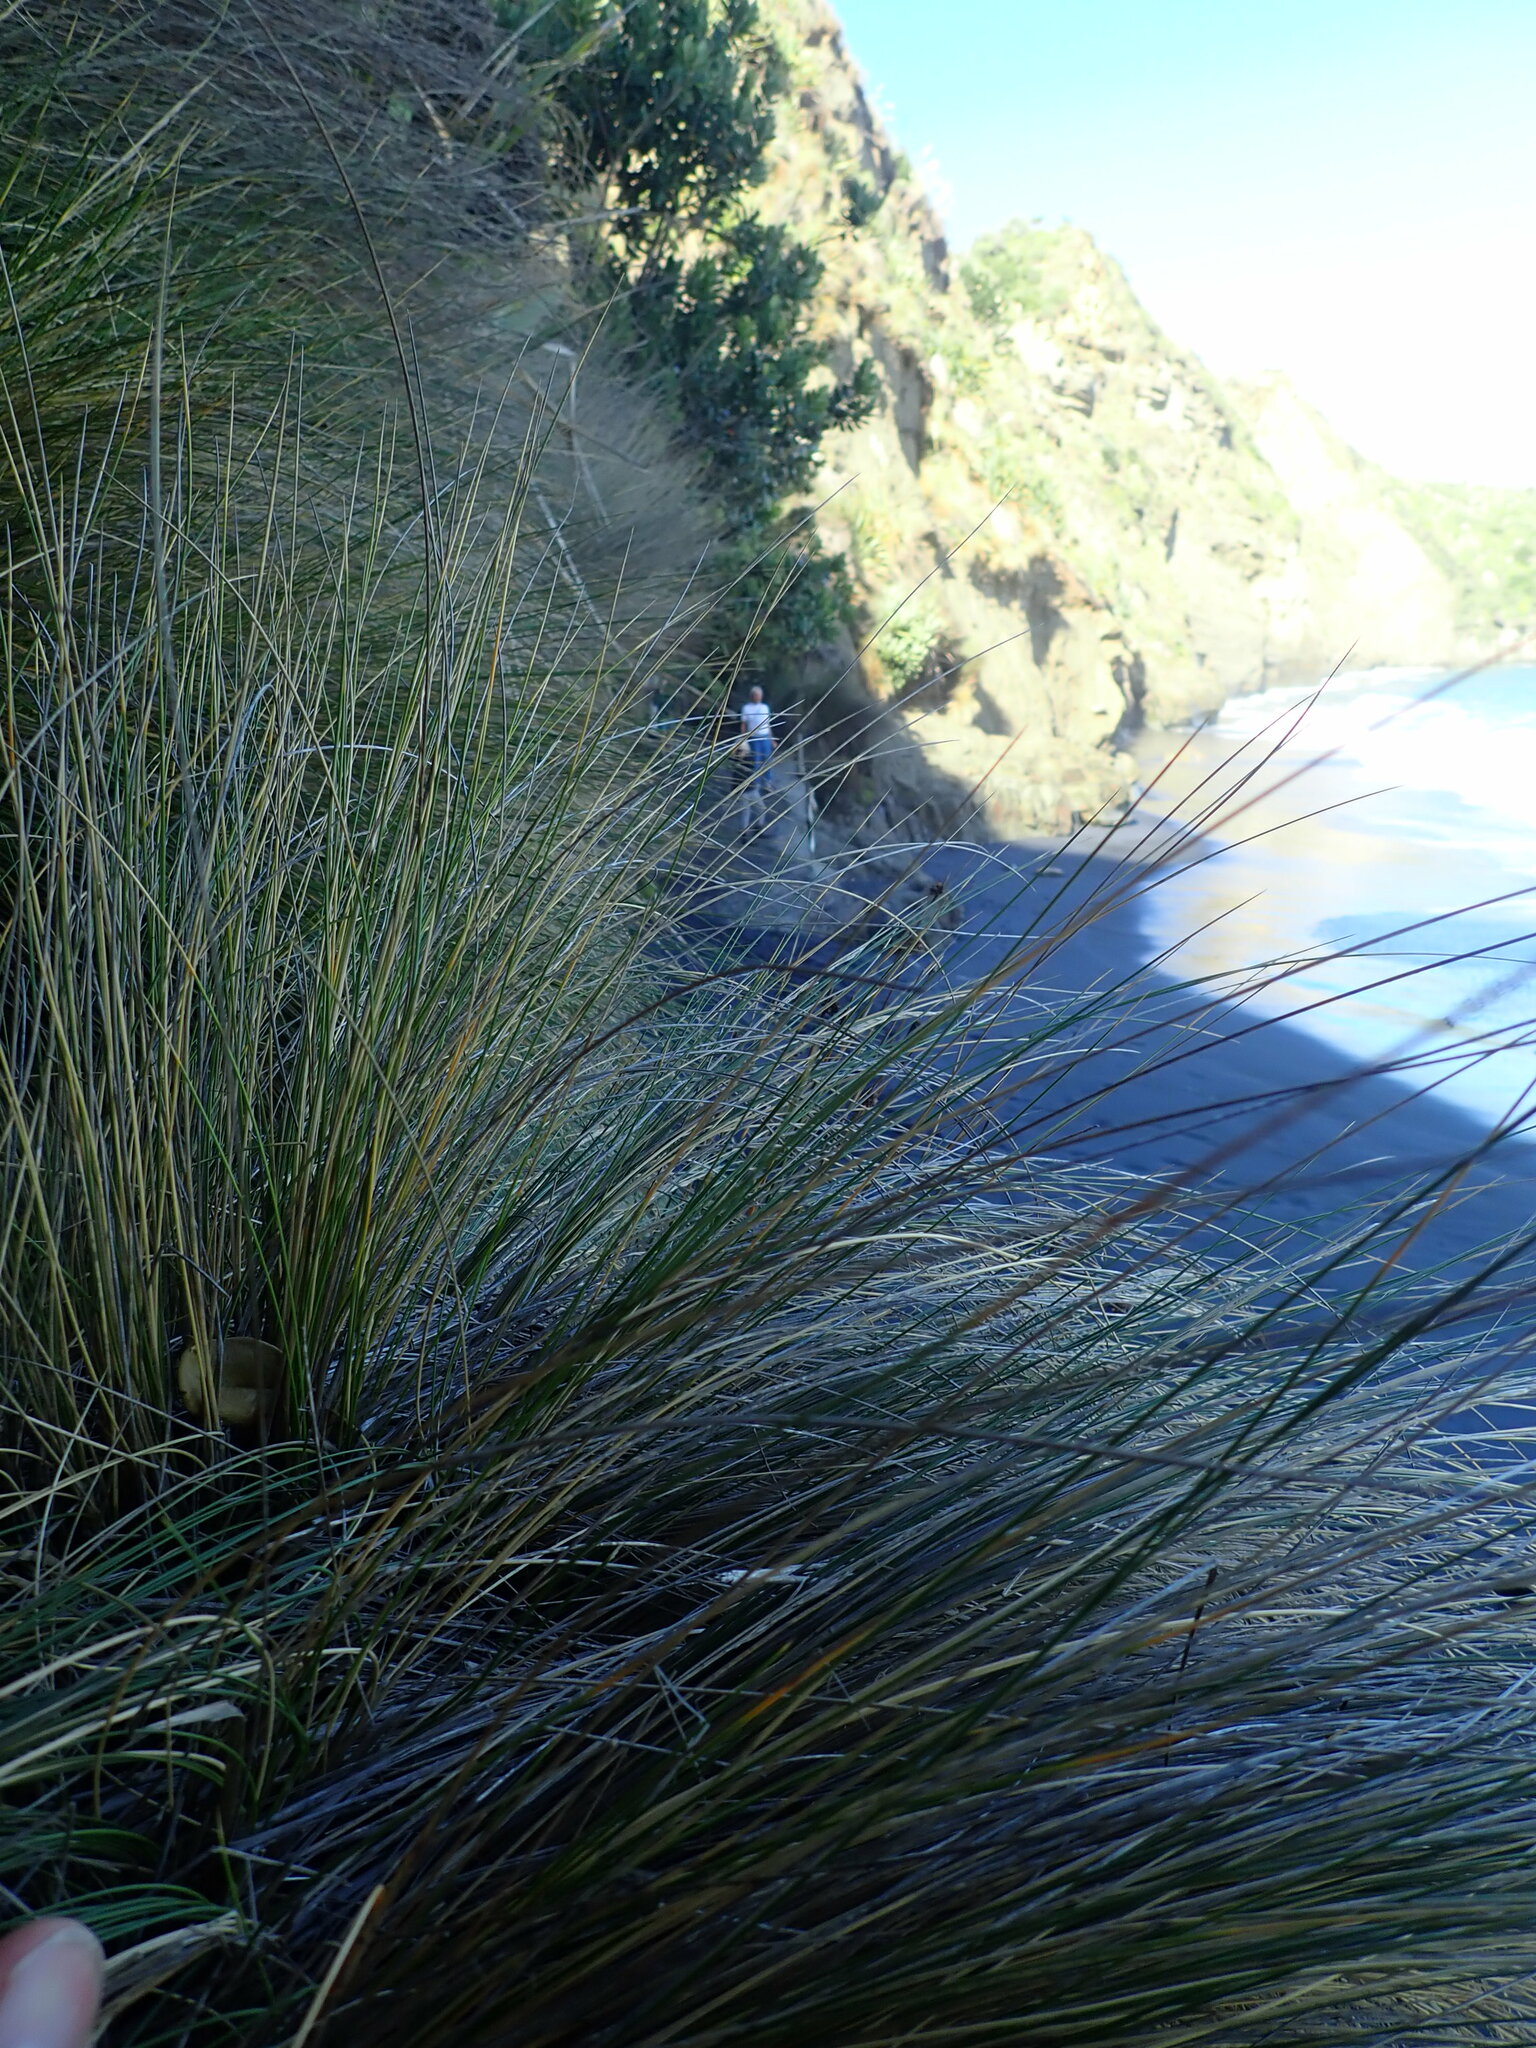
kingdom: Plantae
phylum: Tracheophyta
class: Liliopsida
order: Poales
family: Poaceae
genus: Poa
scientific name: Poa billardierei
